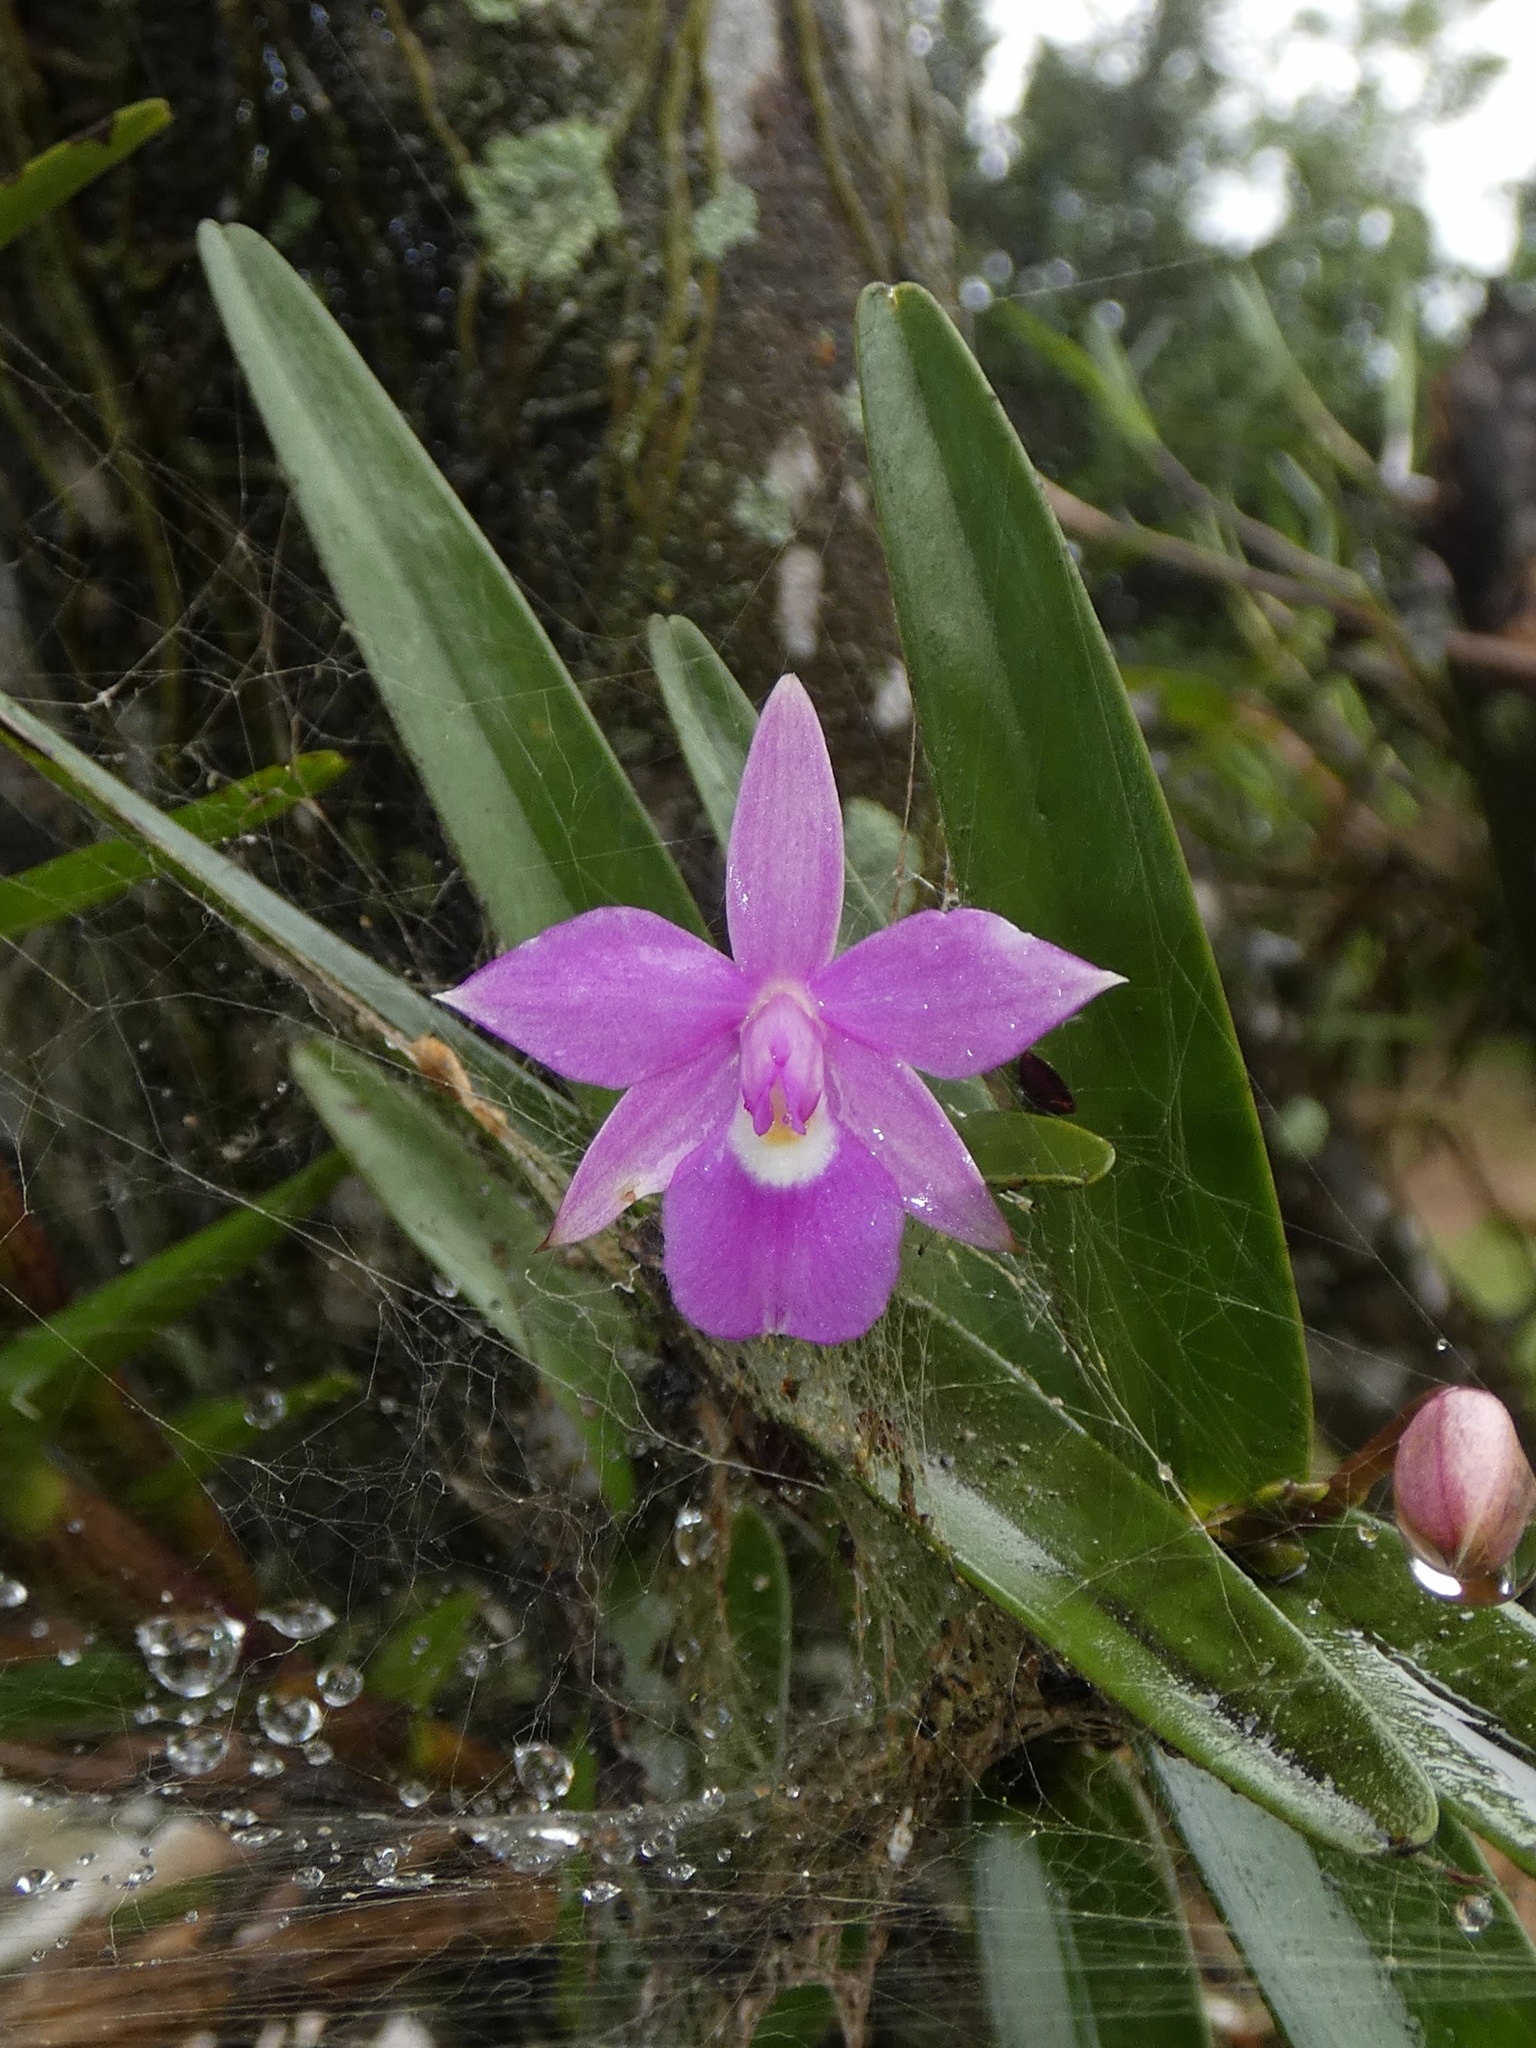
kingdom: Plantae
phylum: Tracheophyta
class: Liliopsida
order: Asparagales
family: Orchidaceae
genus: Dimerandra
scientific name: Dimerandra emarginata
